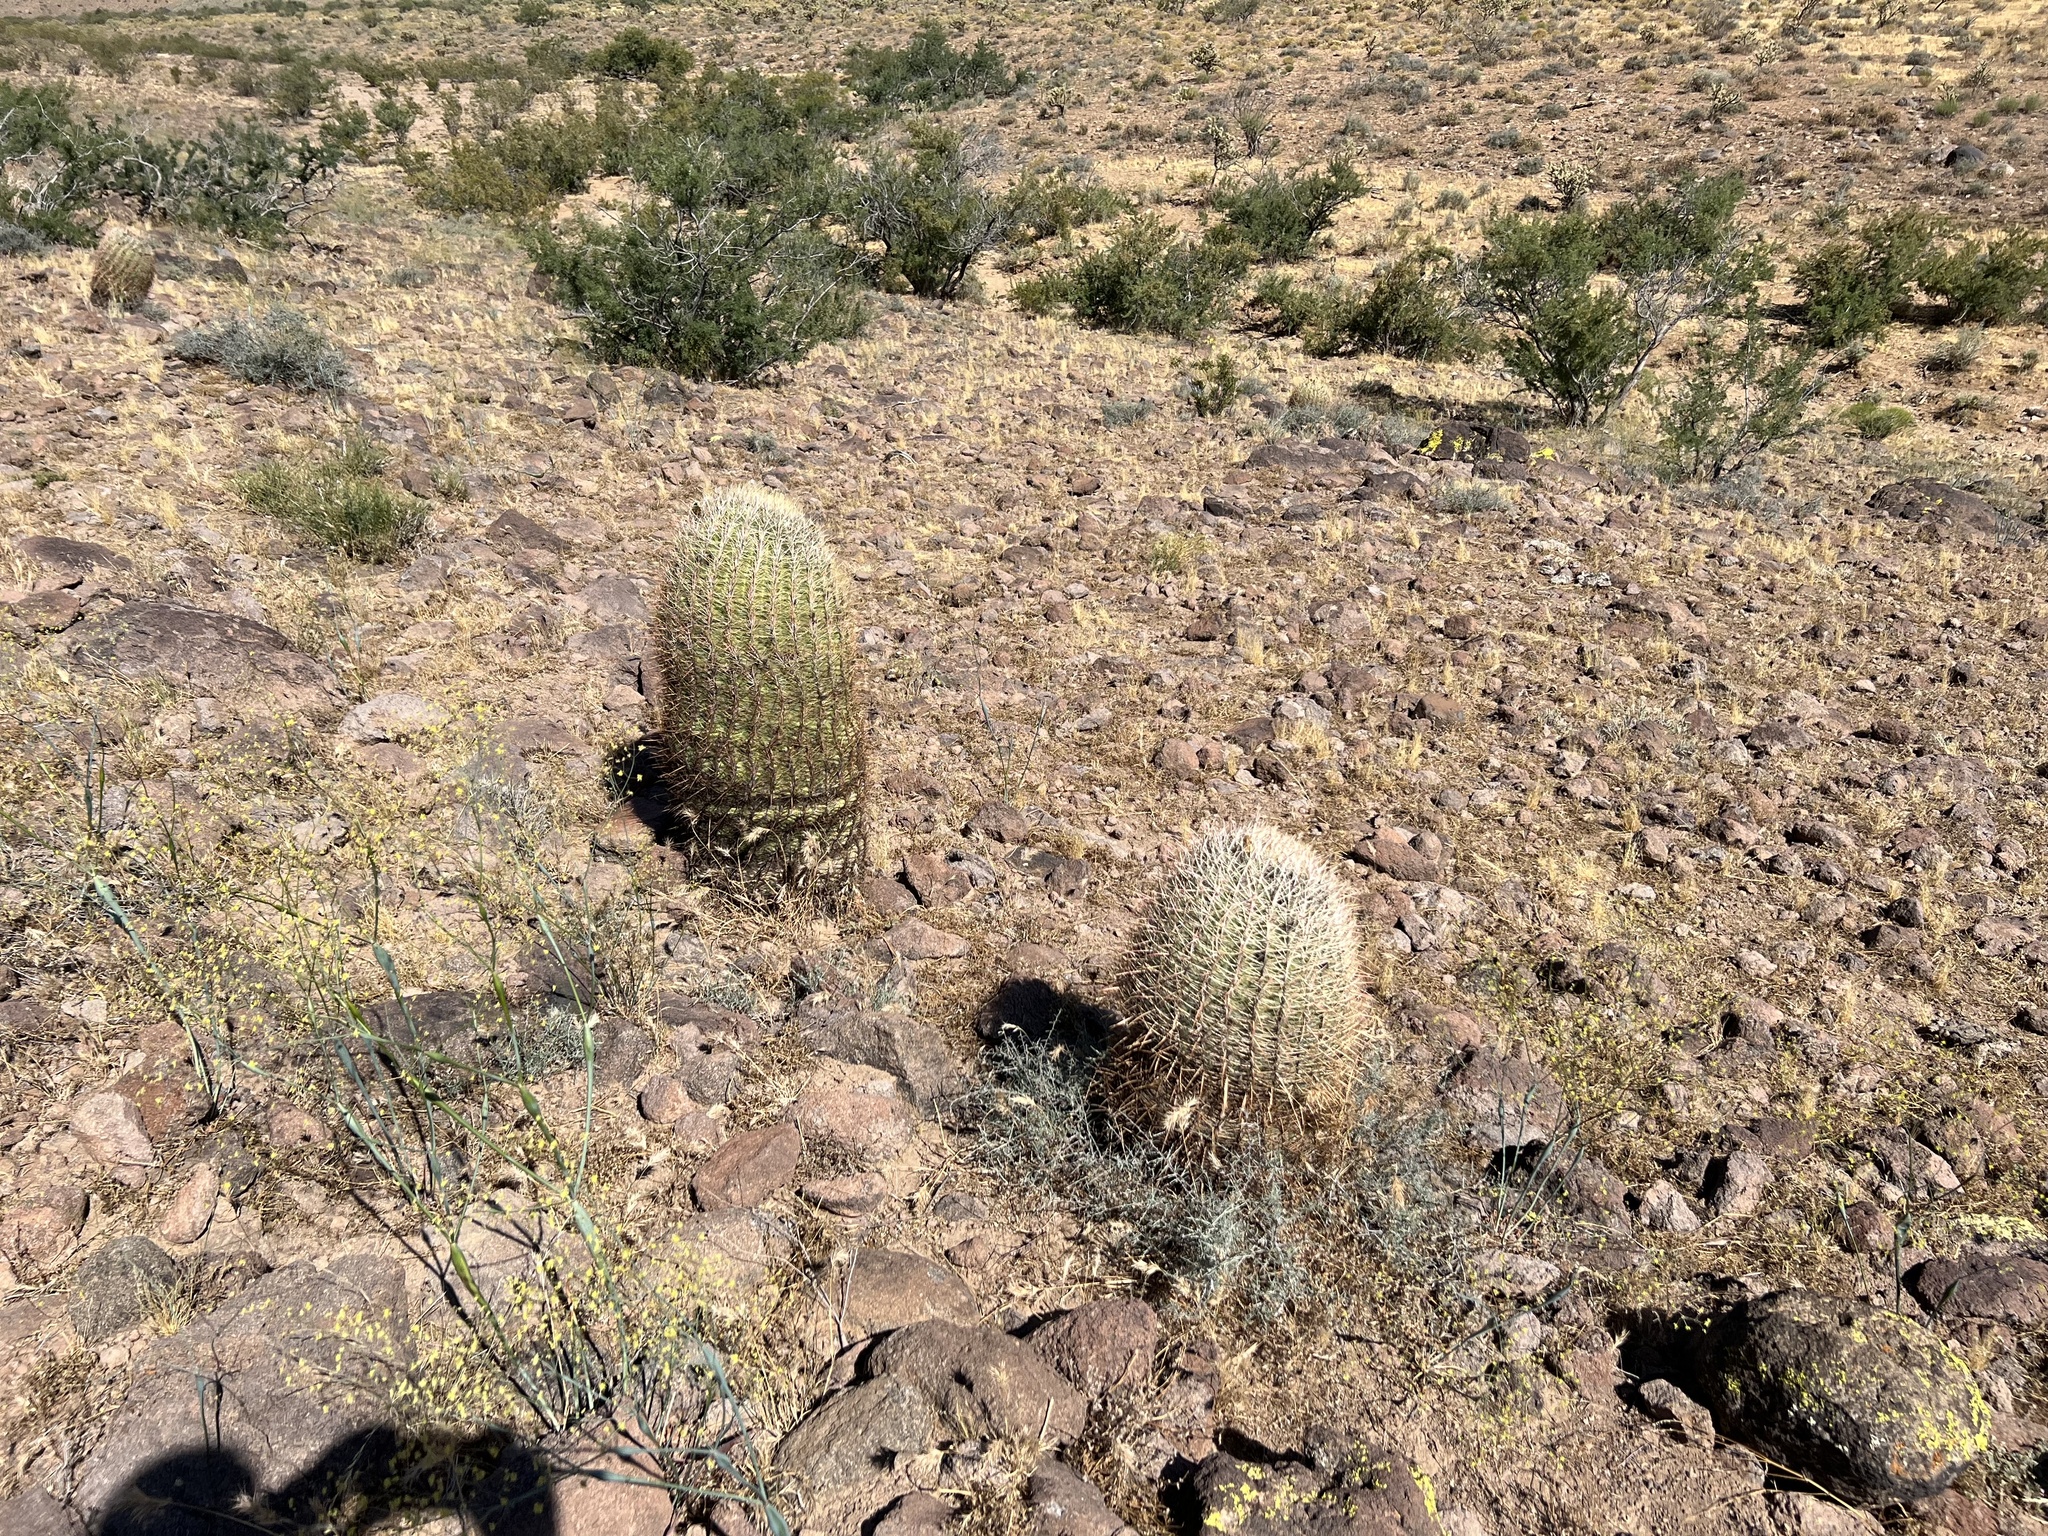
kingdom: Plantae
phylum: Tracheophyta
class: Magnoliopsida
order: Caryophyllales
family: Cactaceae
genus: Ferocactus
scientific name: Ferocactus cylindraceus
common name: California barrel cactus
